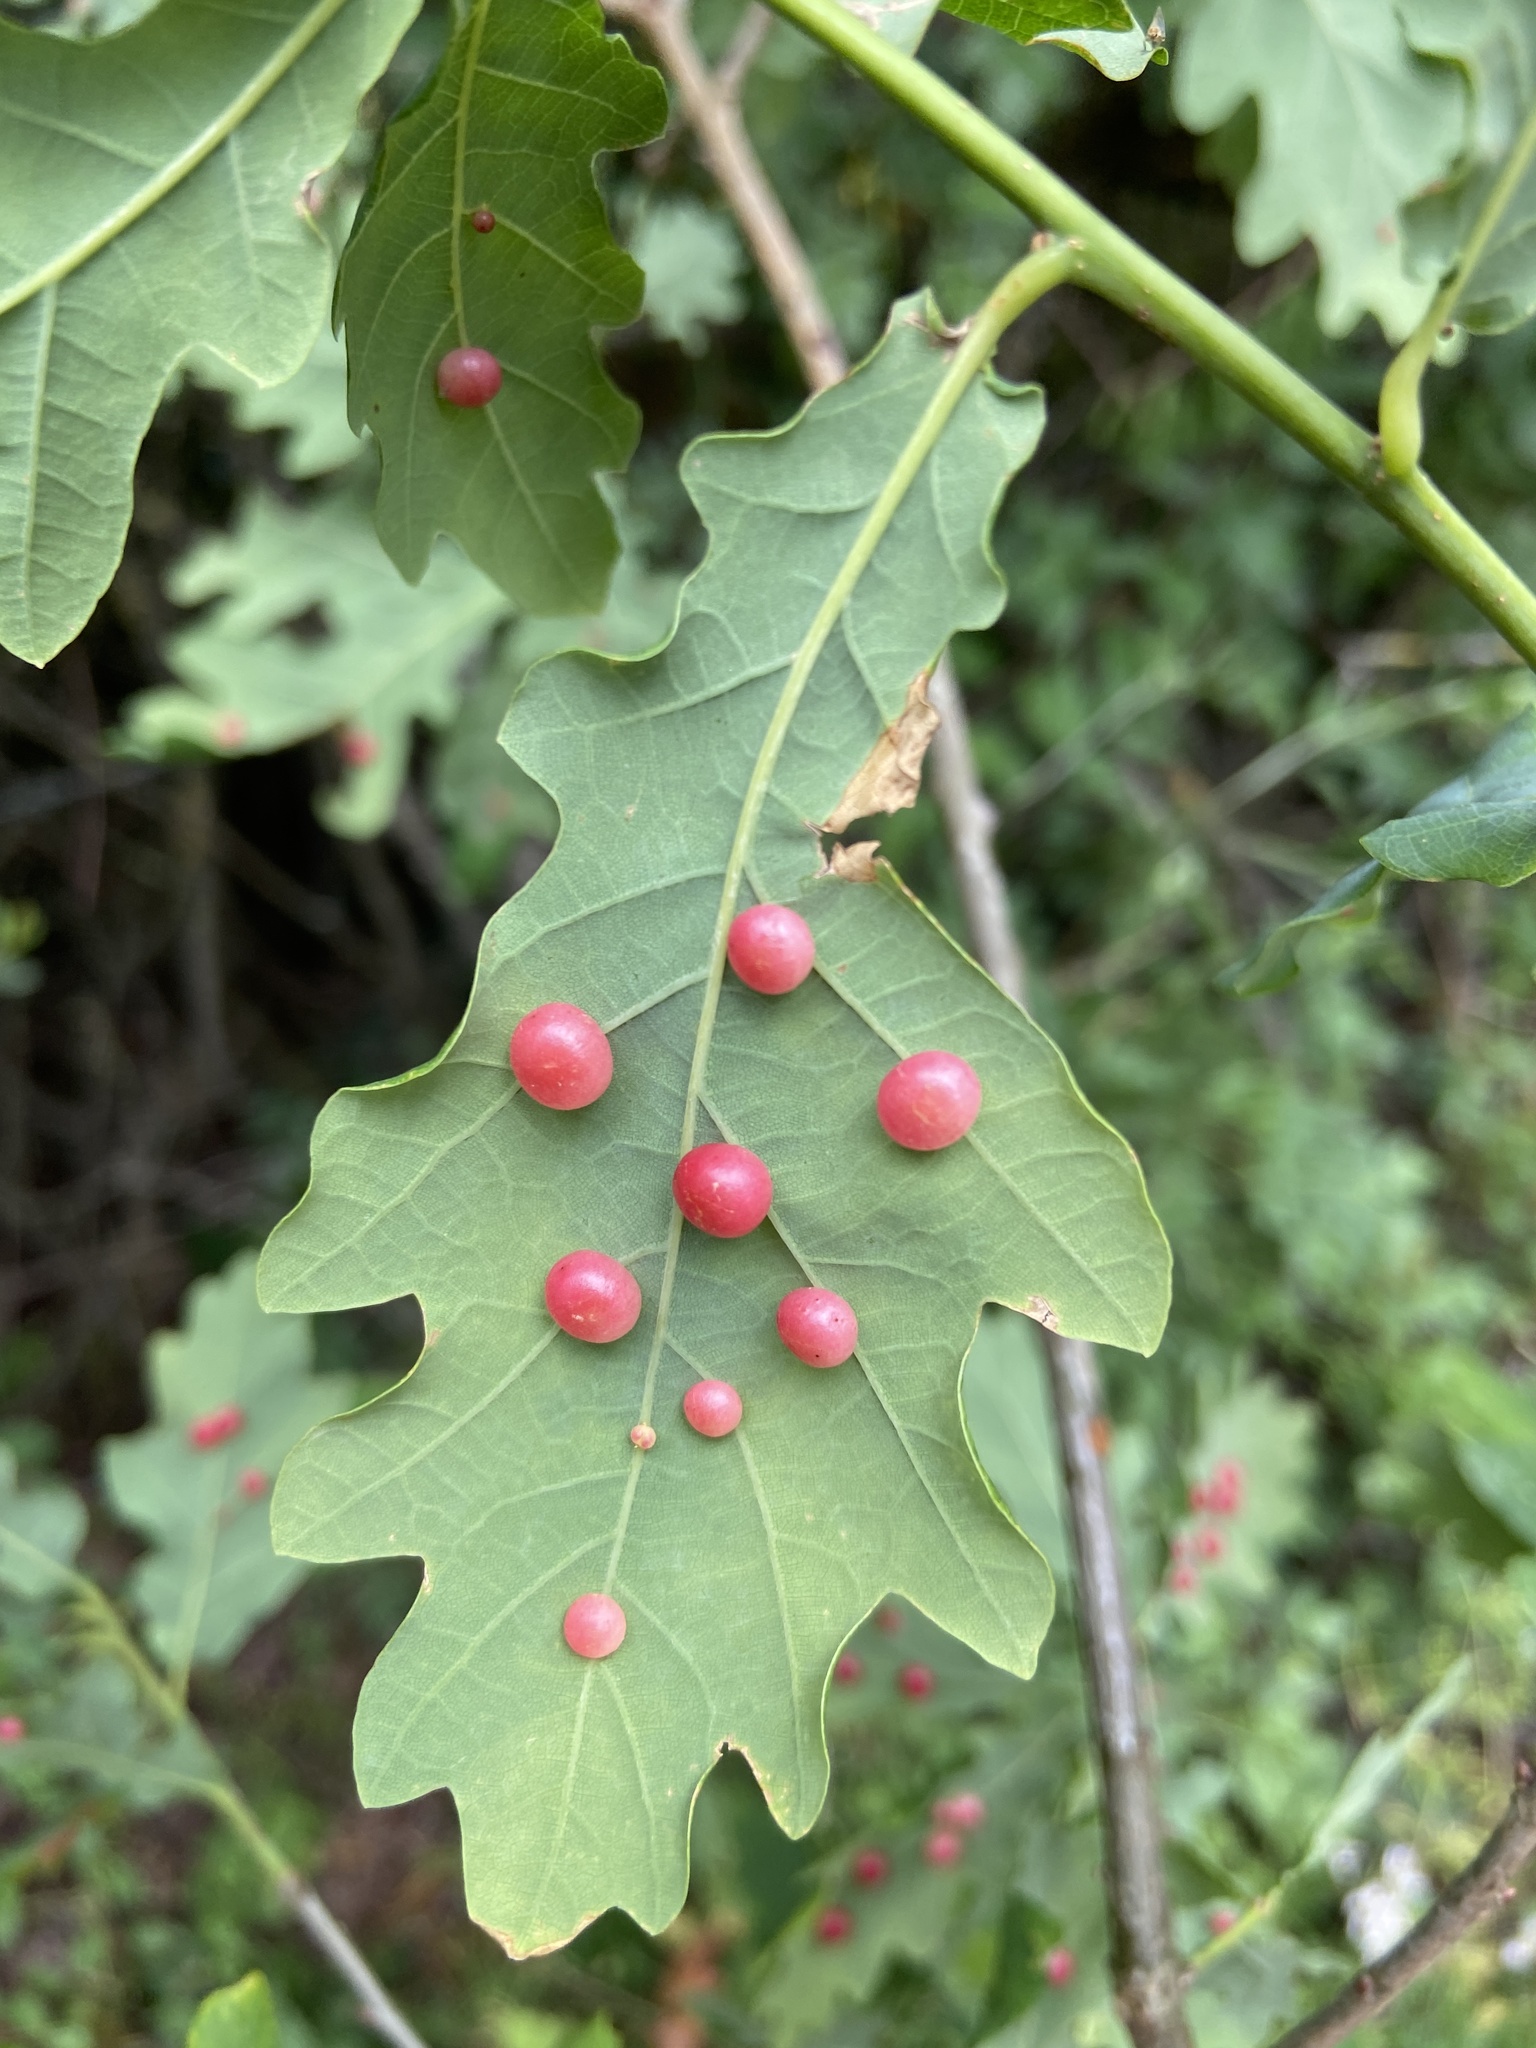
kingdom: Animalia
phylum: Arthropoda
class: Insecta
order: Hymenoptera
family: Cynipidae
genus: Cynips
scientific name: Cynips divisa
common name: Red currant gall
